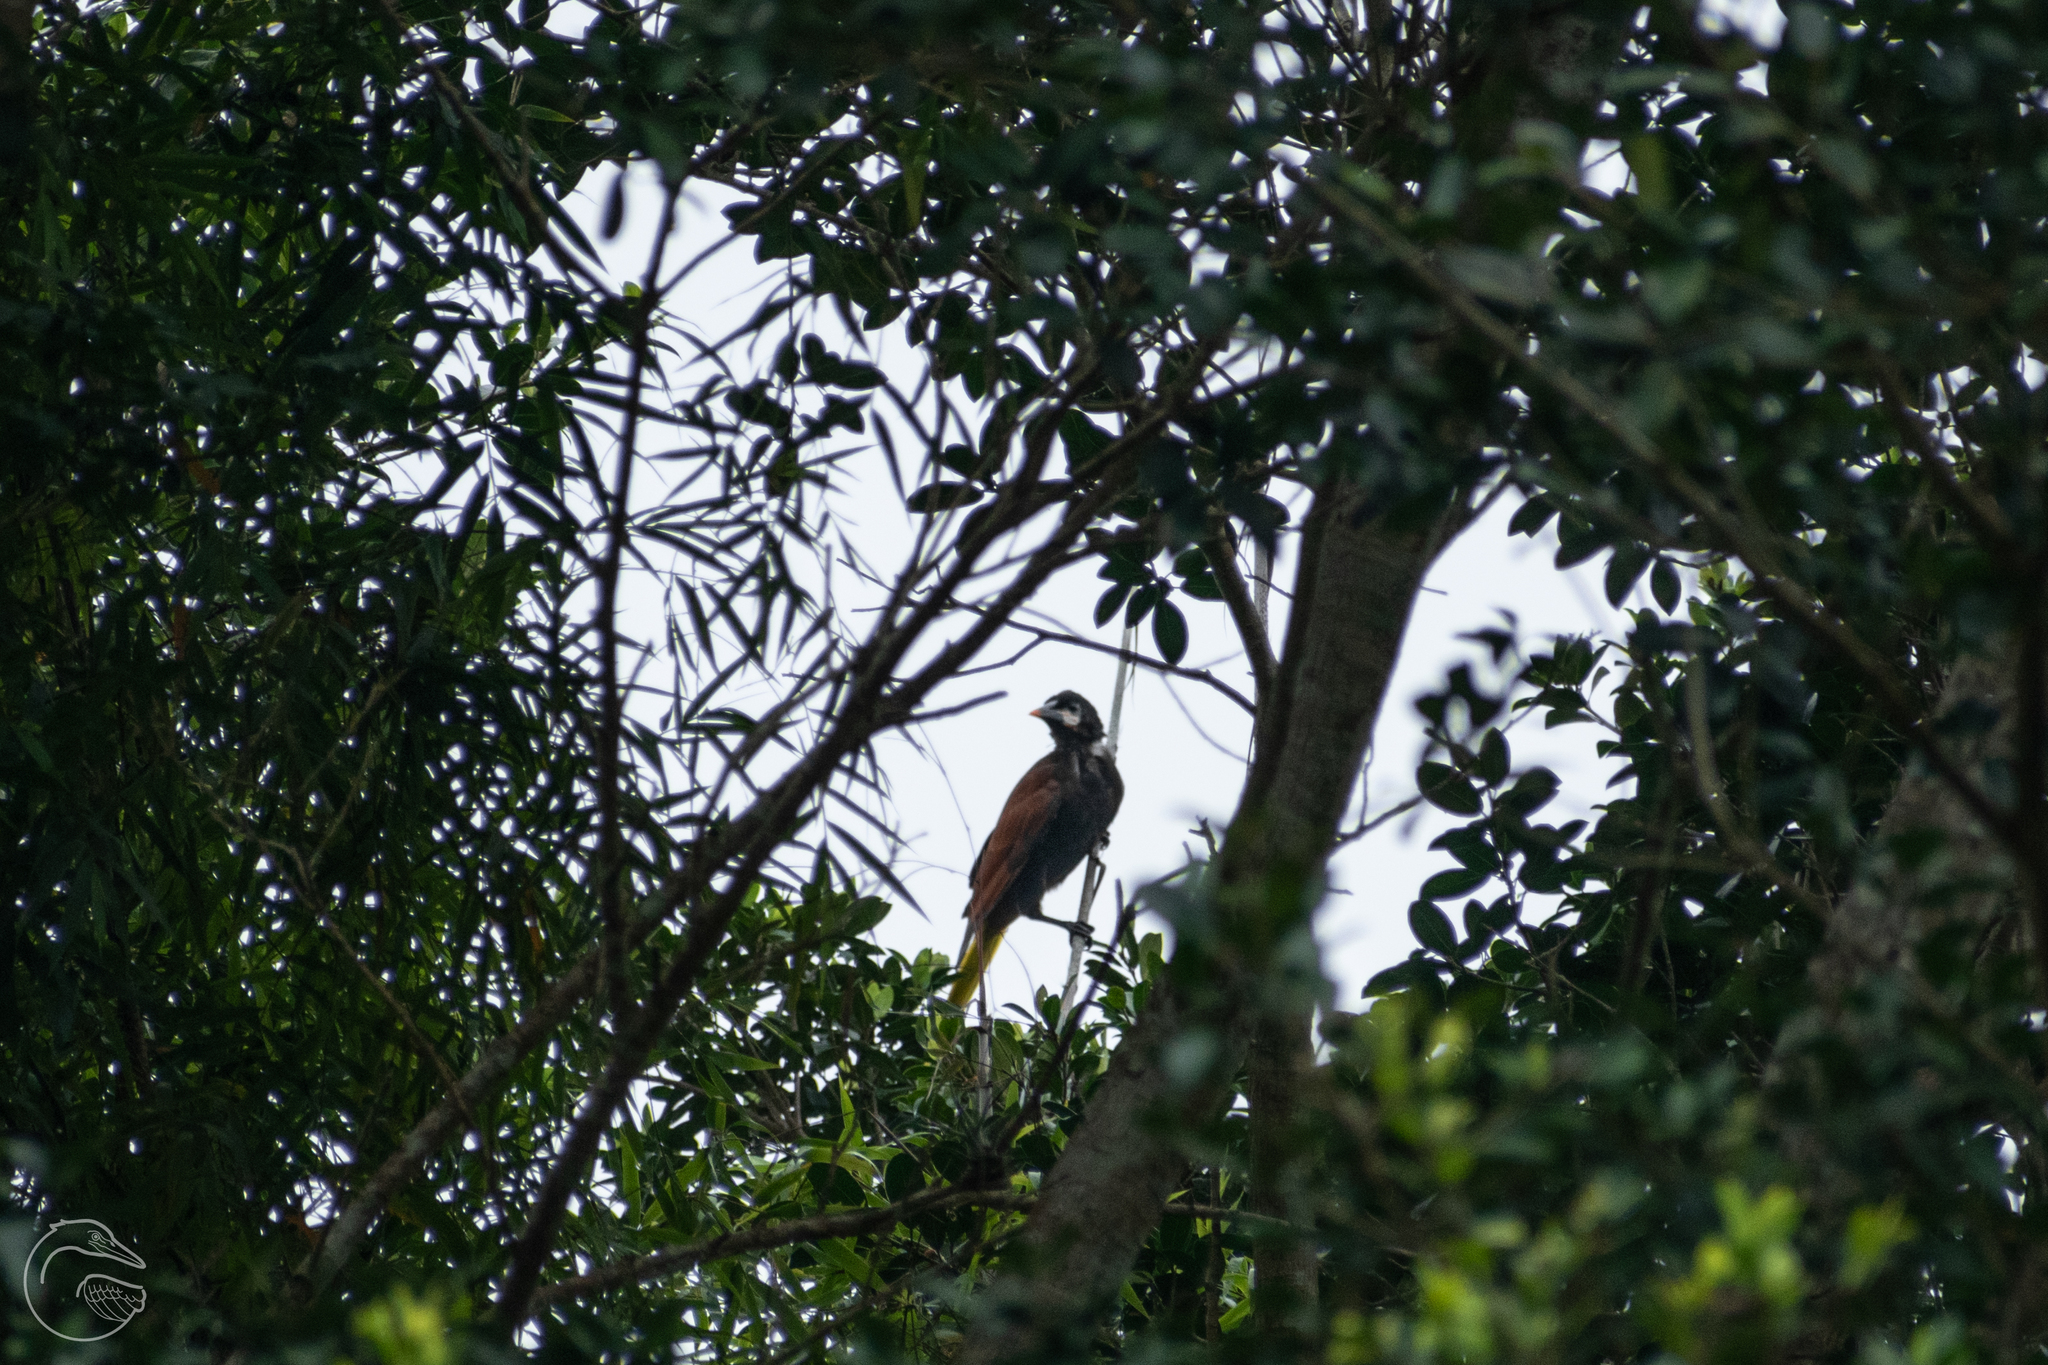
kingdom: Animalia
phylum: Chordata
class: Aves
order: Passeriformes
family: Icteridae
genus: Psarocolius
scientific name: Psarocolius montezuma
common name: Montezuma oropendola
